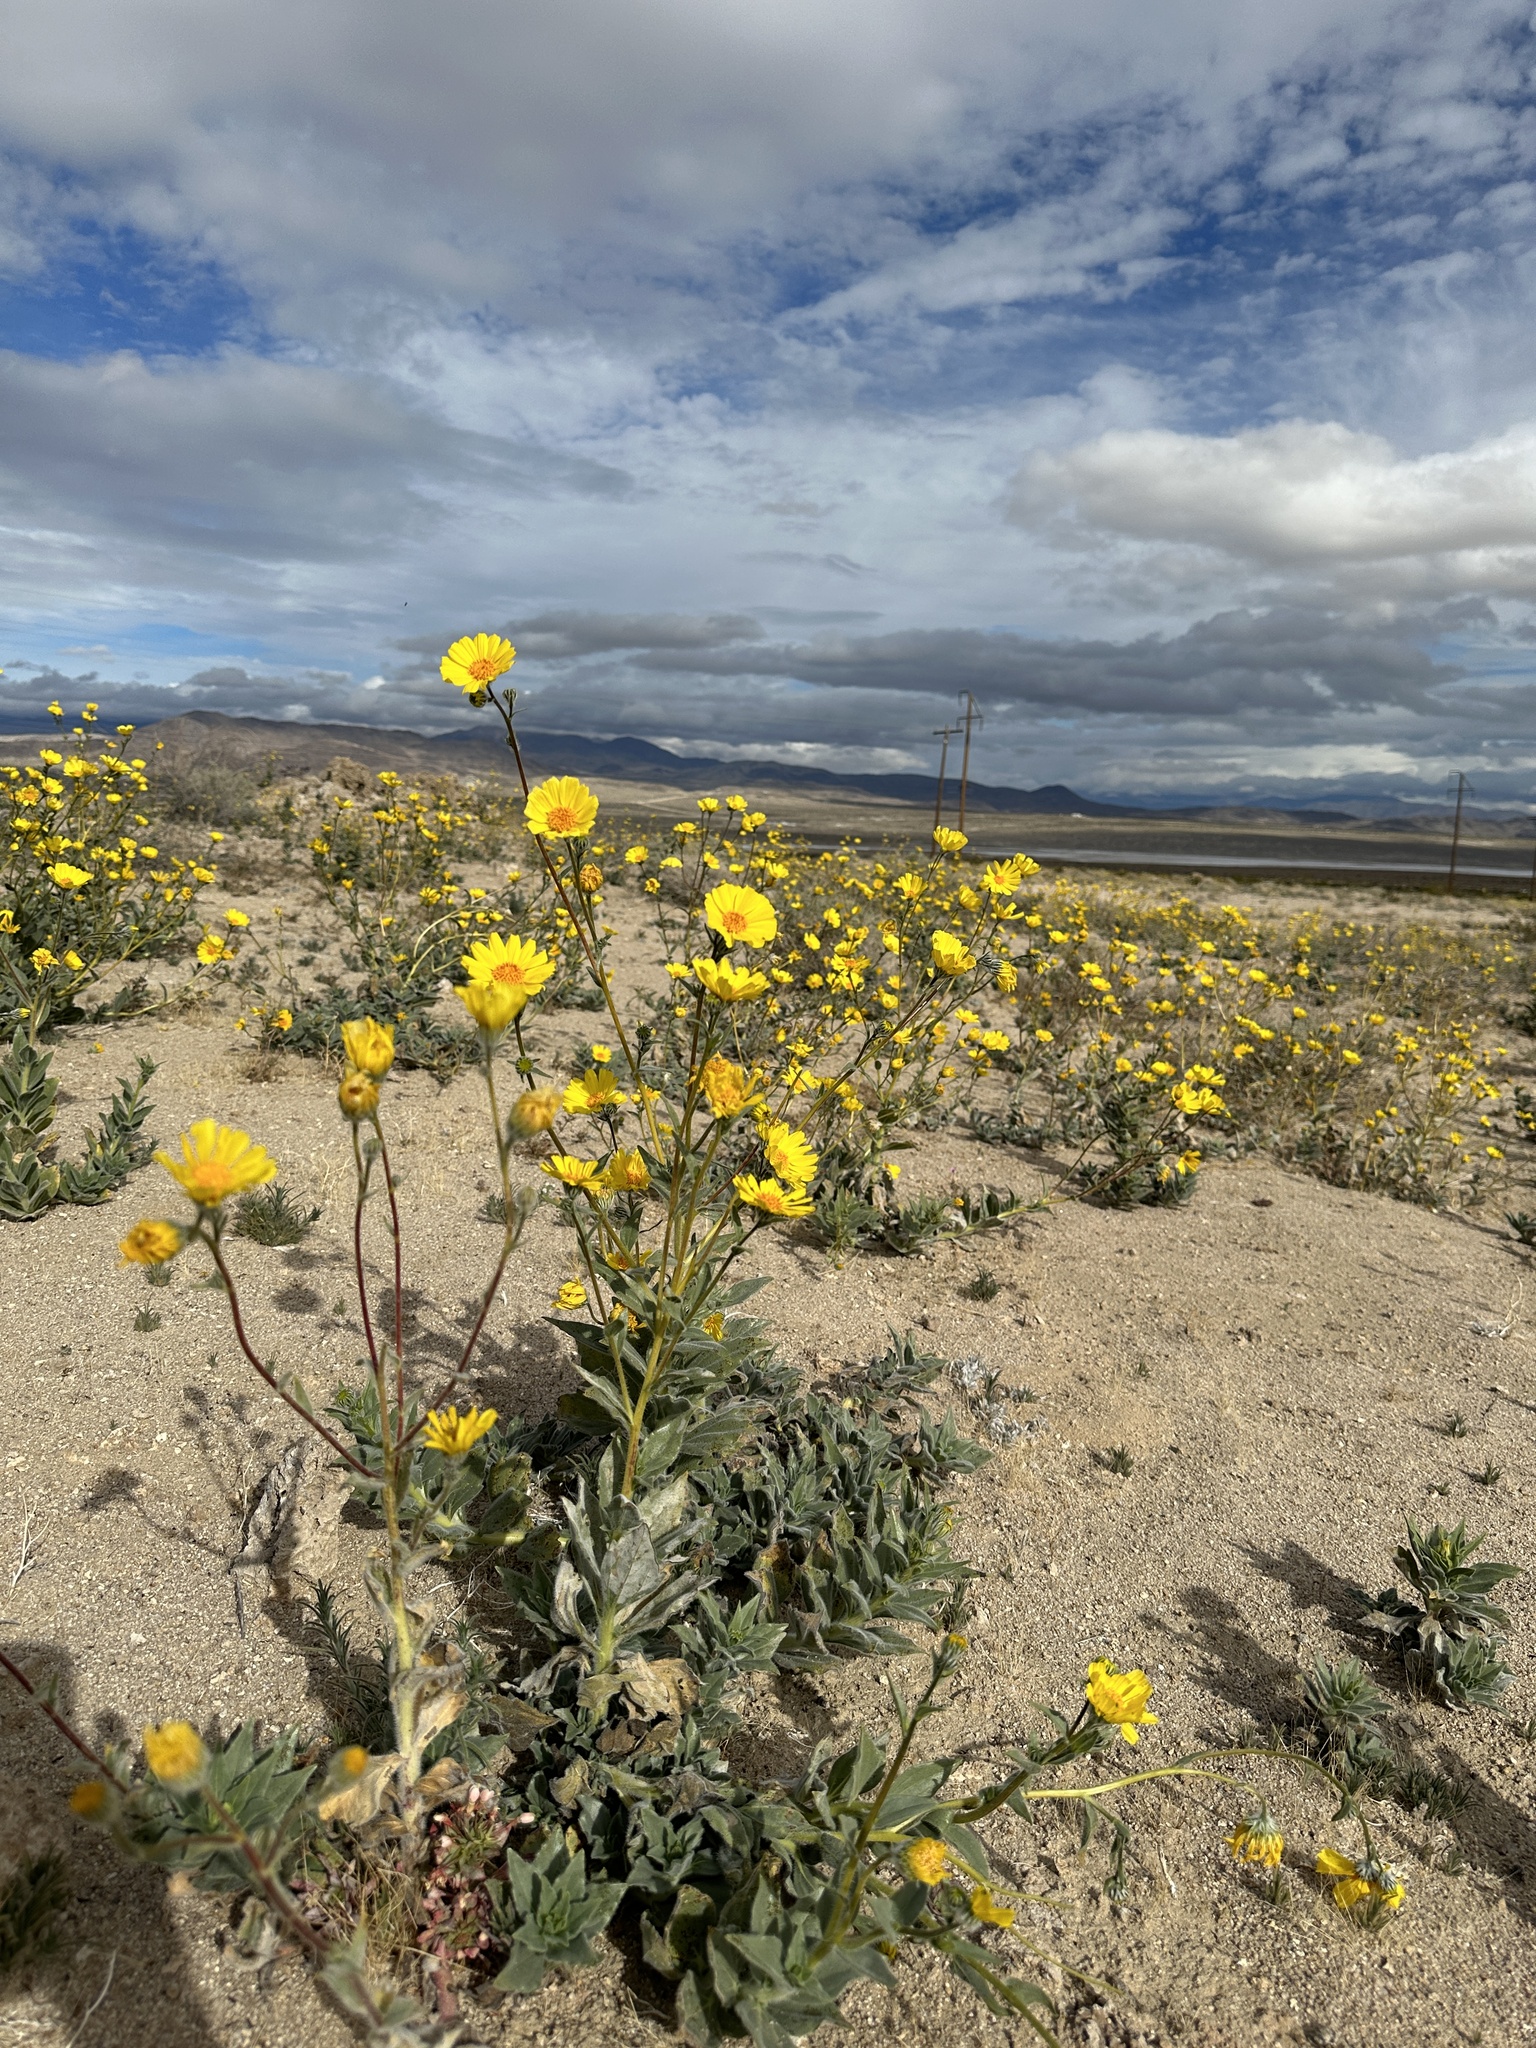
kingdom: Plantae
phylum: Tracheophyta
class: Magnoliopsida
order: Asterales
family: Asteraceae
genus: Geraea
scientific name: Geraea canescens
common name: Desert-gold
